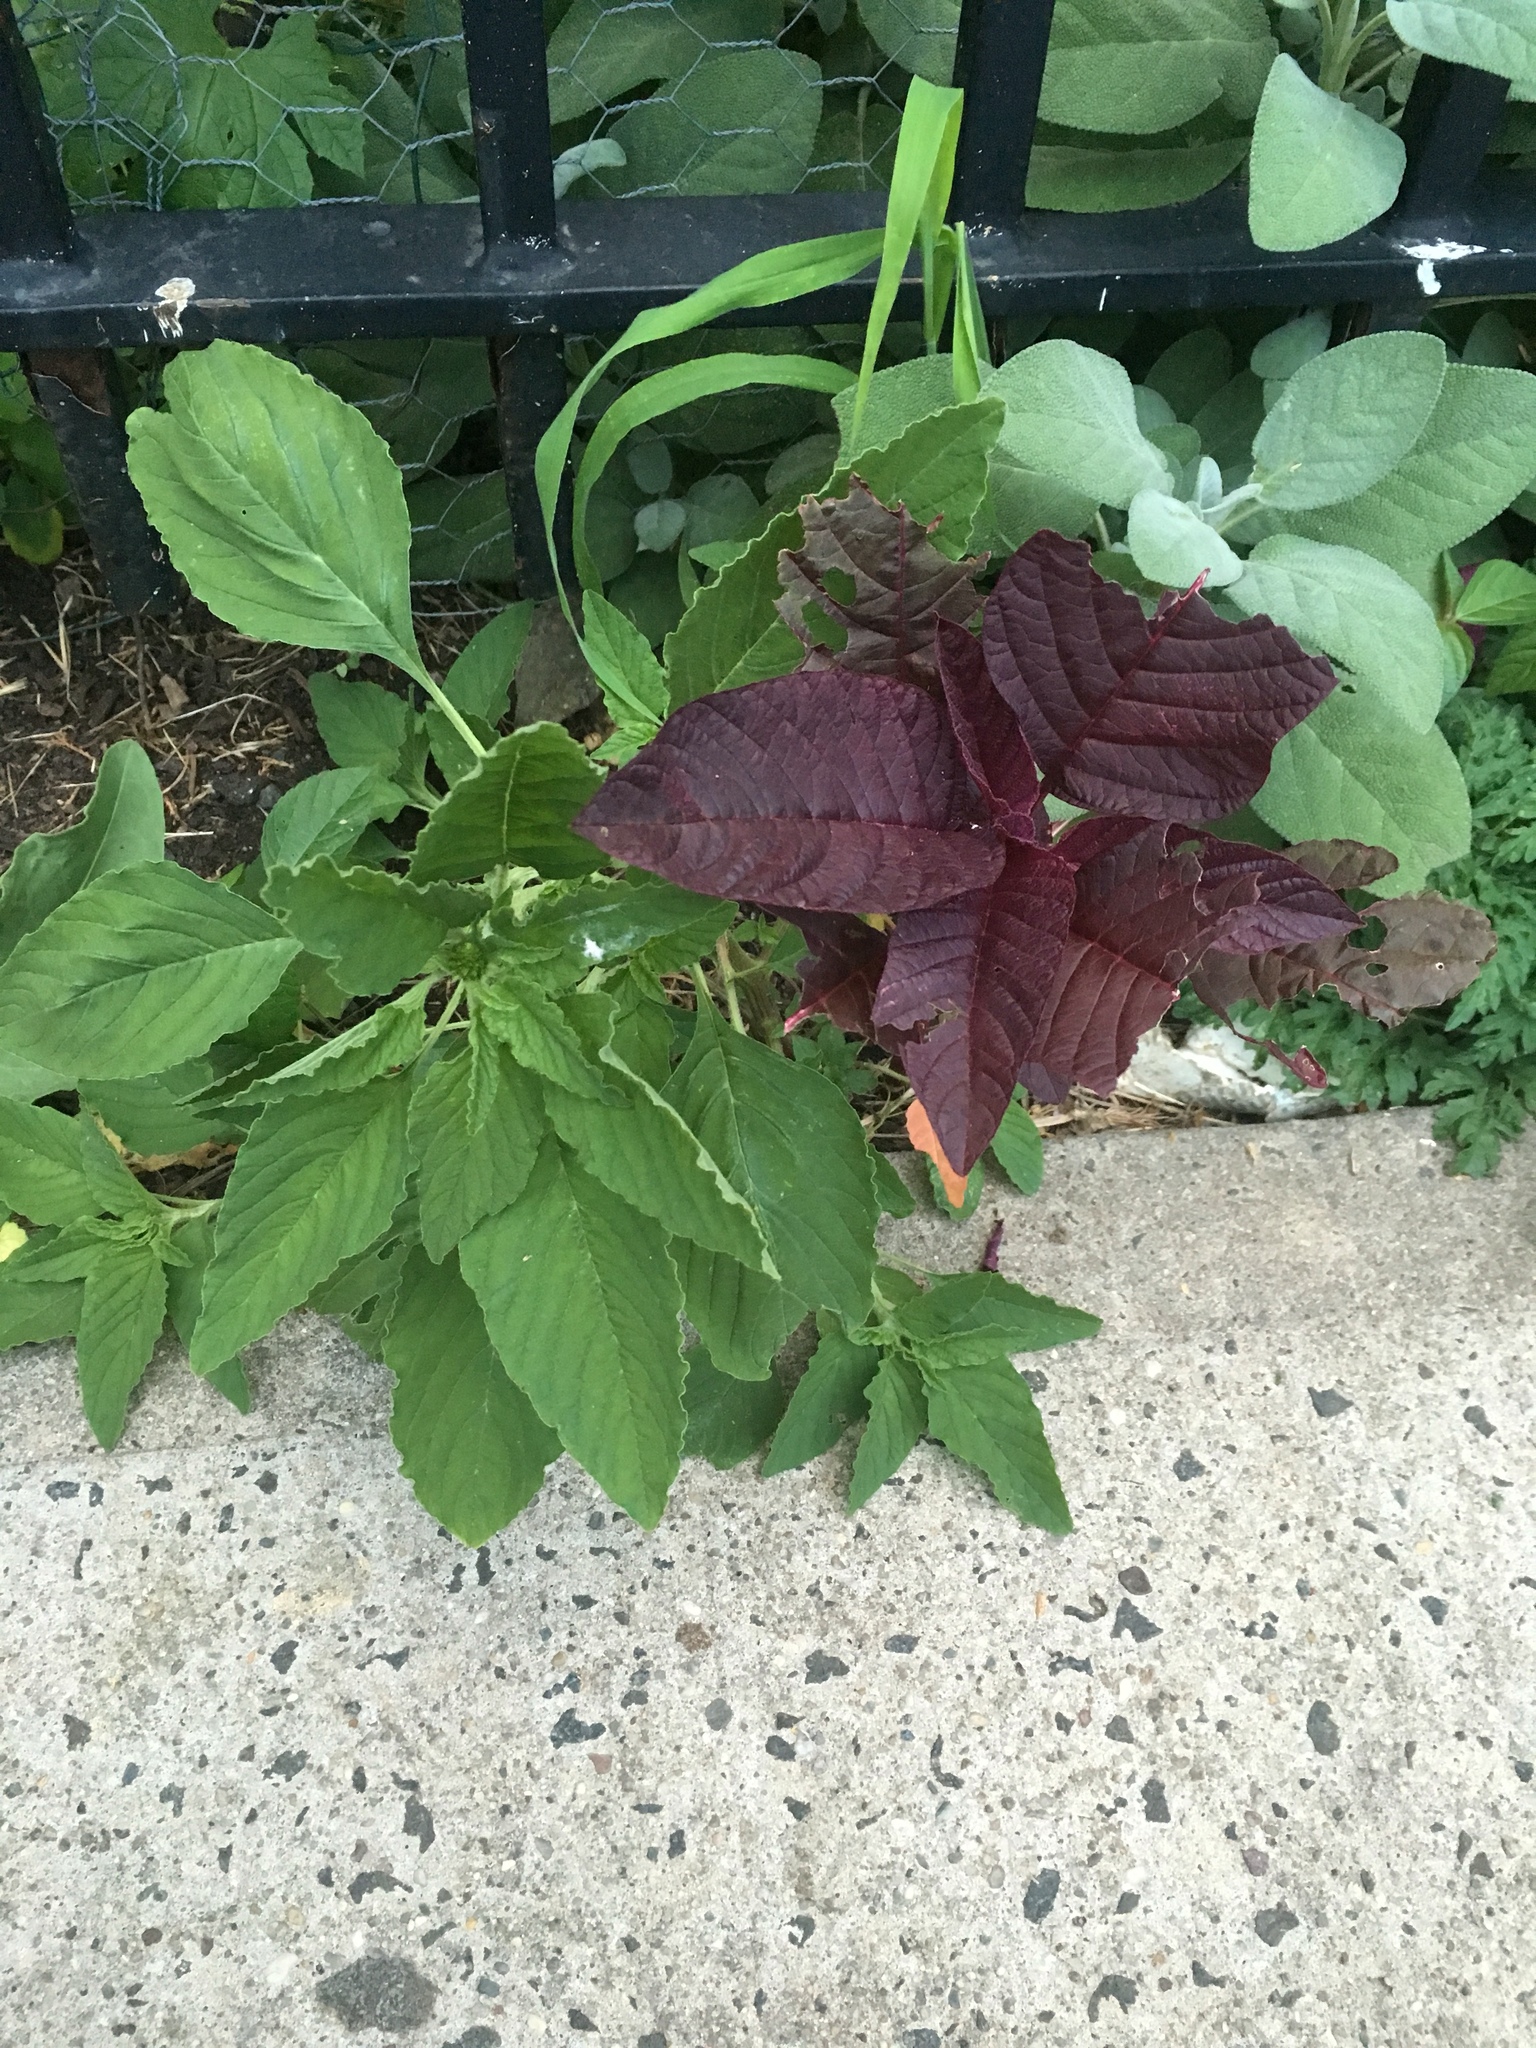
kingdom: Plantae
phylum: Tracheophyta
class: Magnoliopsida
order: Caryophyllales
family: Amaranthaceae
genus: Amaranthus
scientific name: Amaranthus cruentus
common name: Purple amaranth
